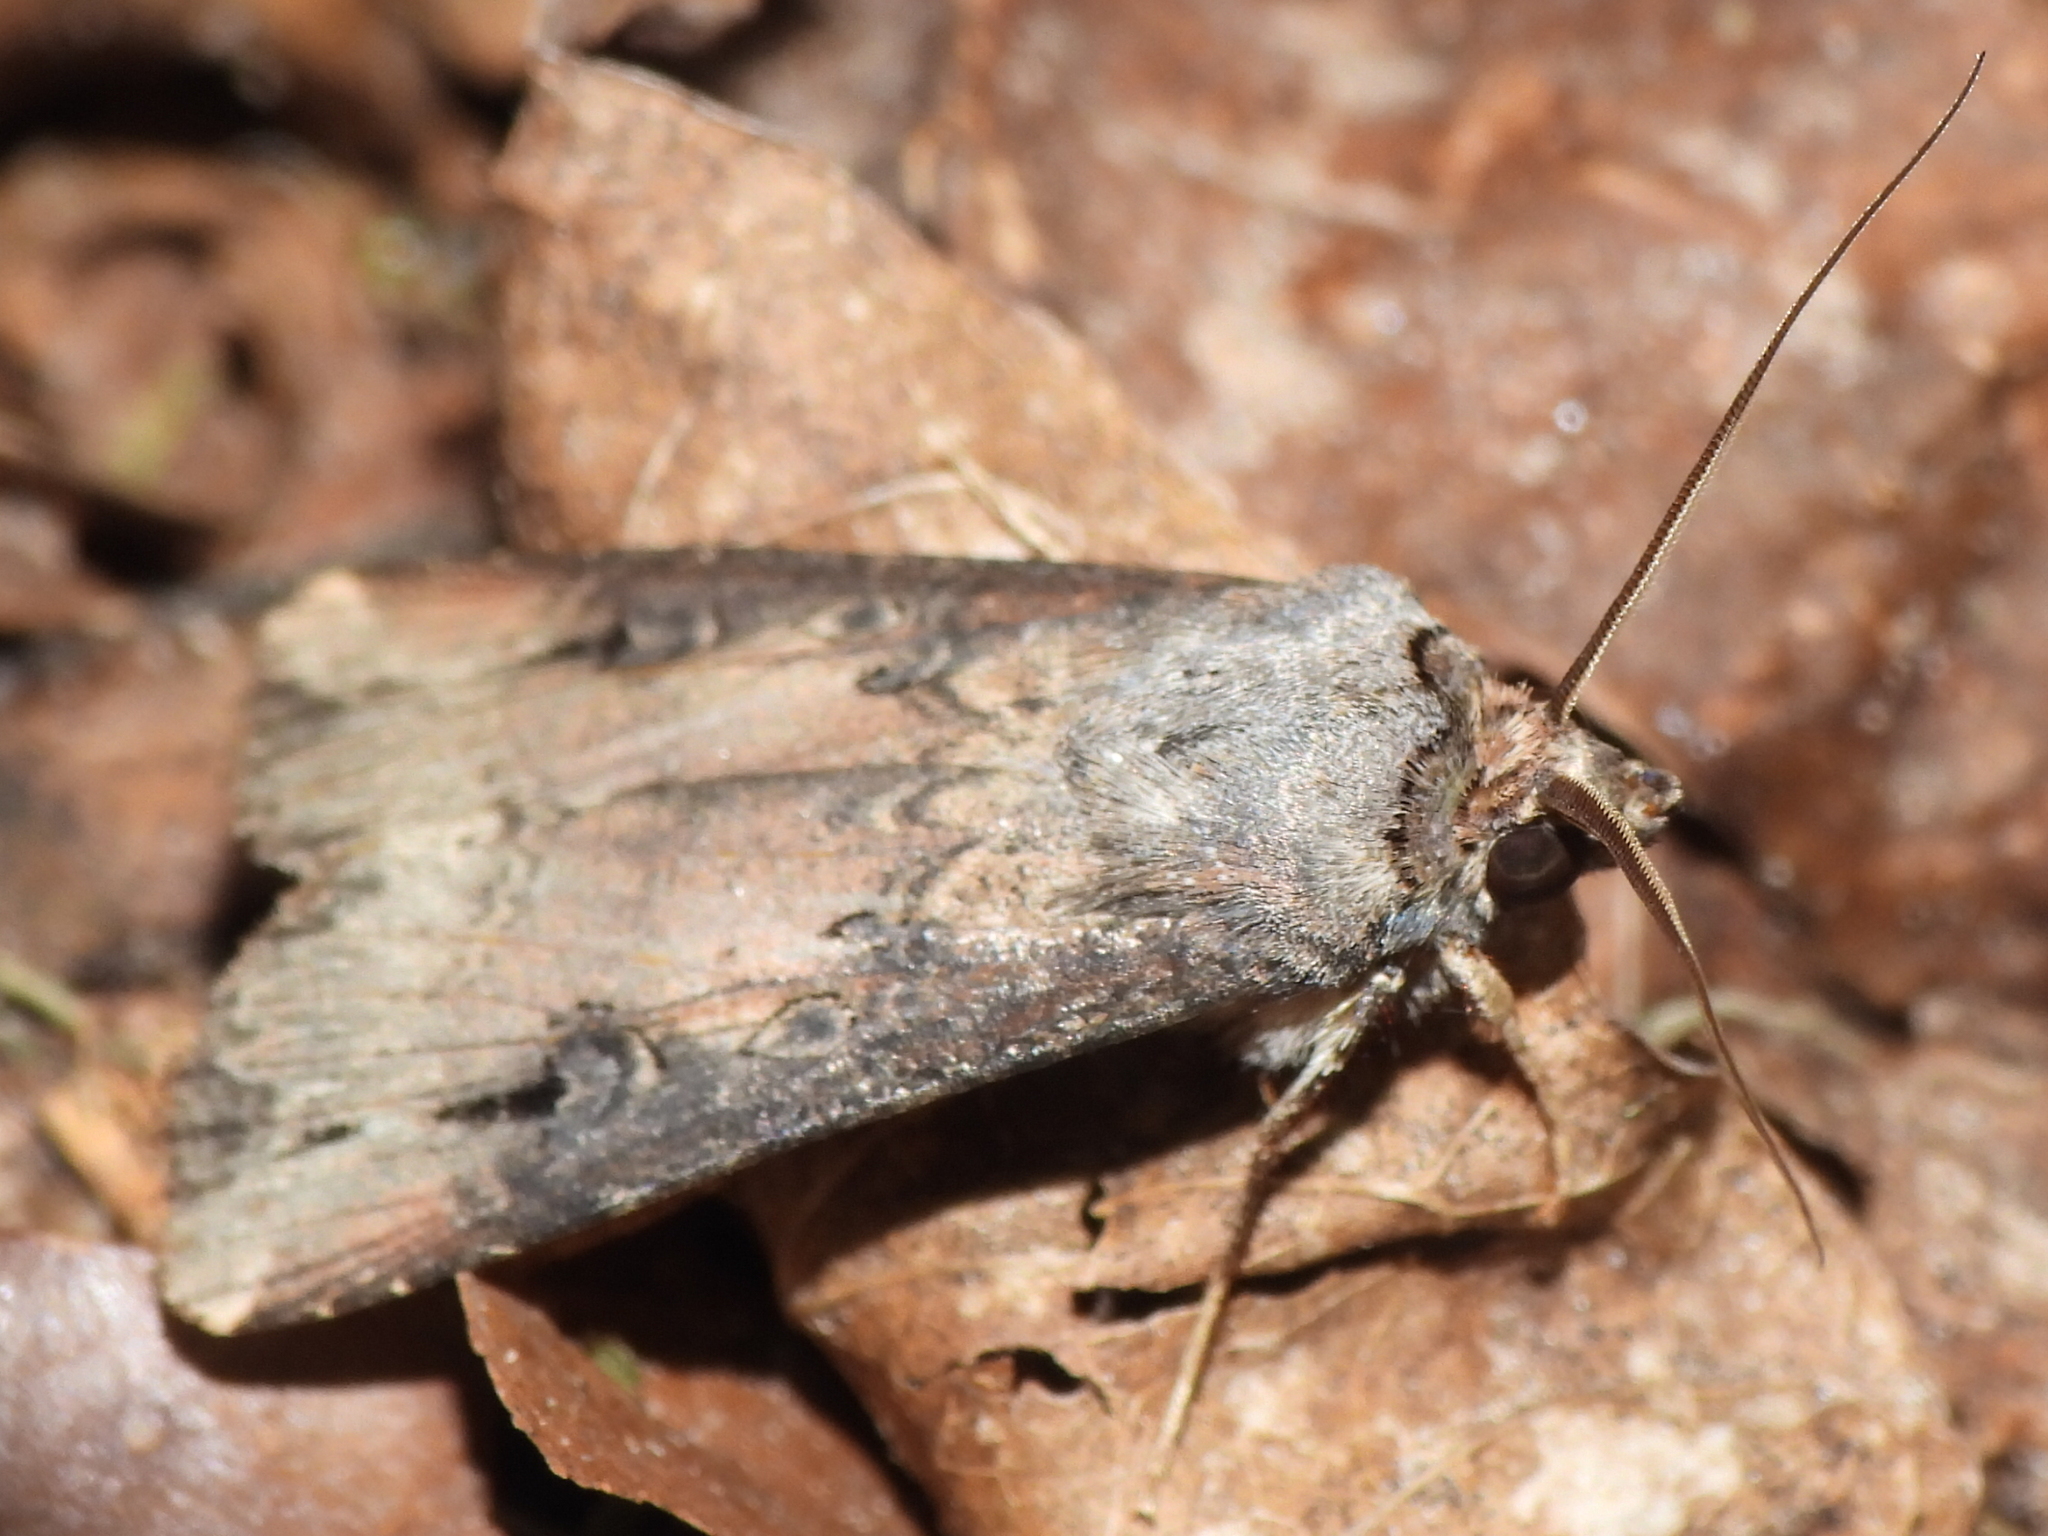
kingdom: Animalia
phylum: Arthropoda
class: Insecta
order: Lepidoptera
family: Noctuidae
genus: Agrotis
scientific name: Agrotis ipsilon
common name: Dark sword-grass
